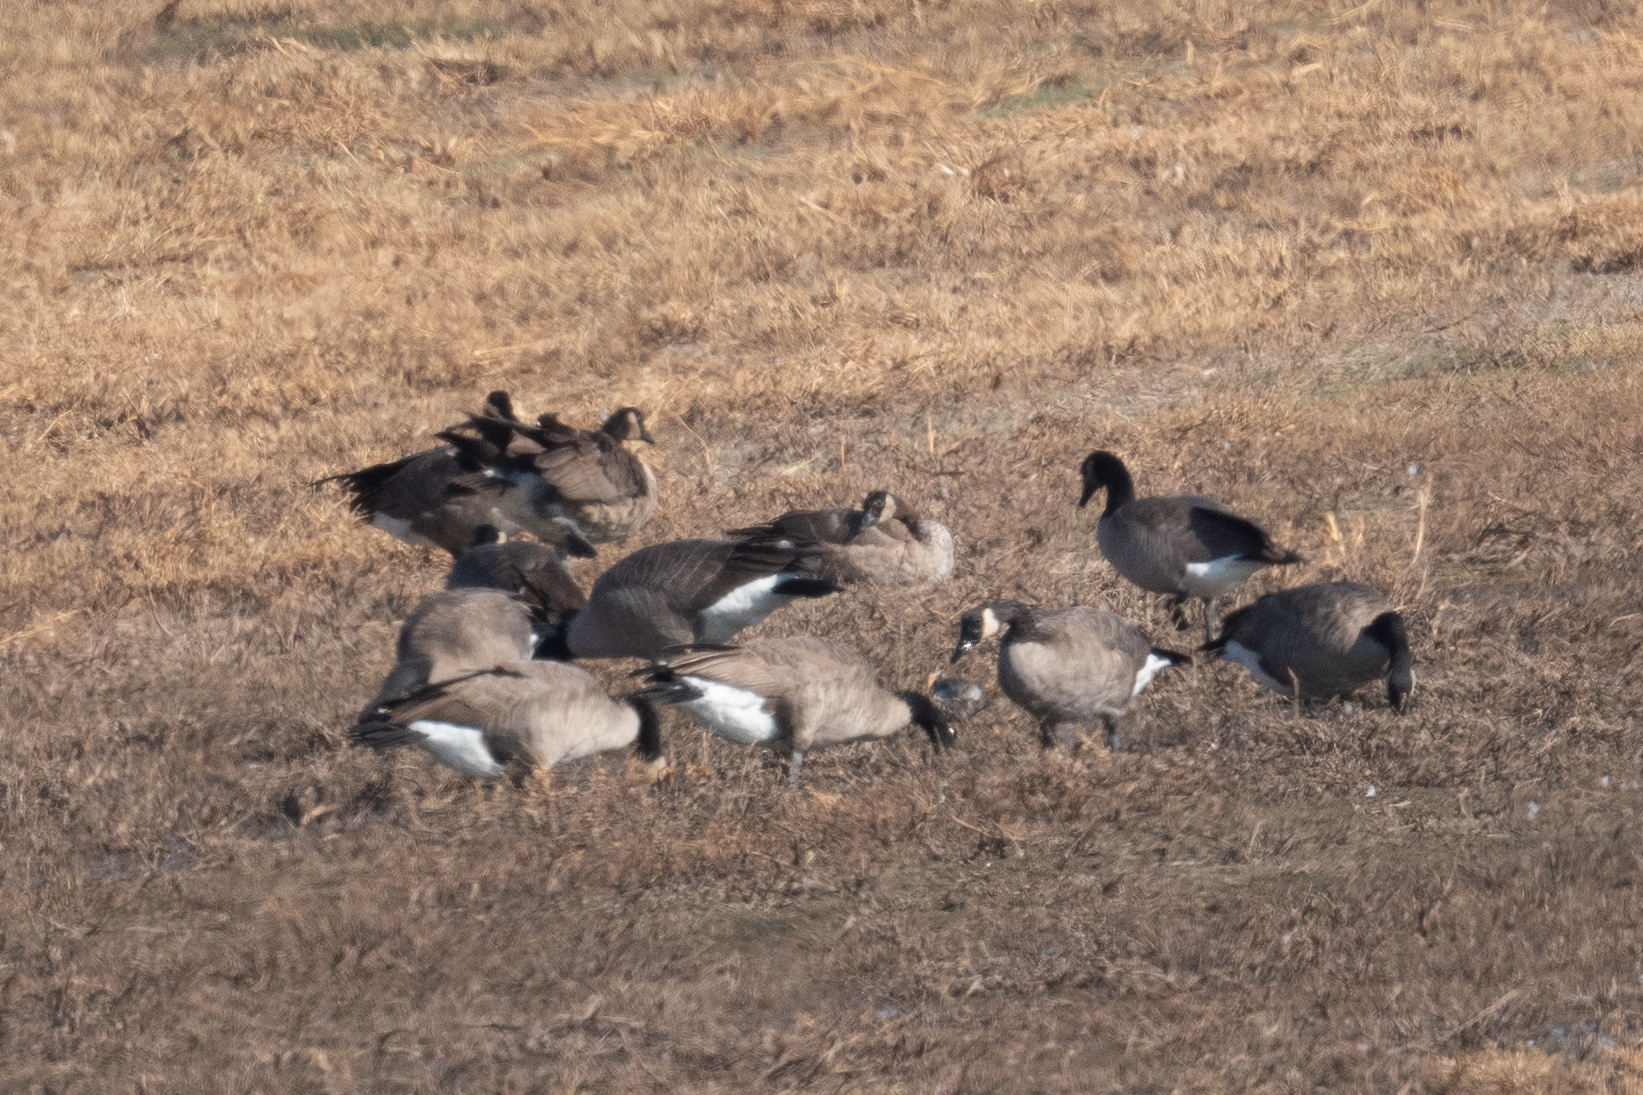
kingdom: Animalia
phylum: Chordata
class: Aves
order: Anseriformes
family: Anatidae
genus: Branta
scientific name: Branta canadensis
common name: Canada goose
